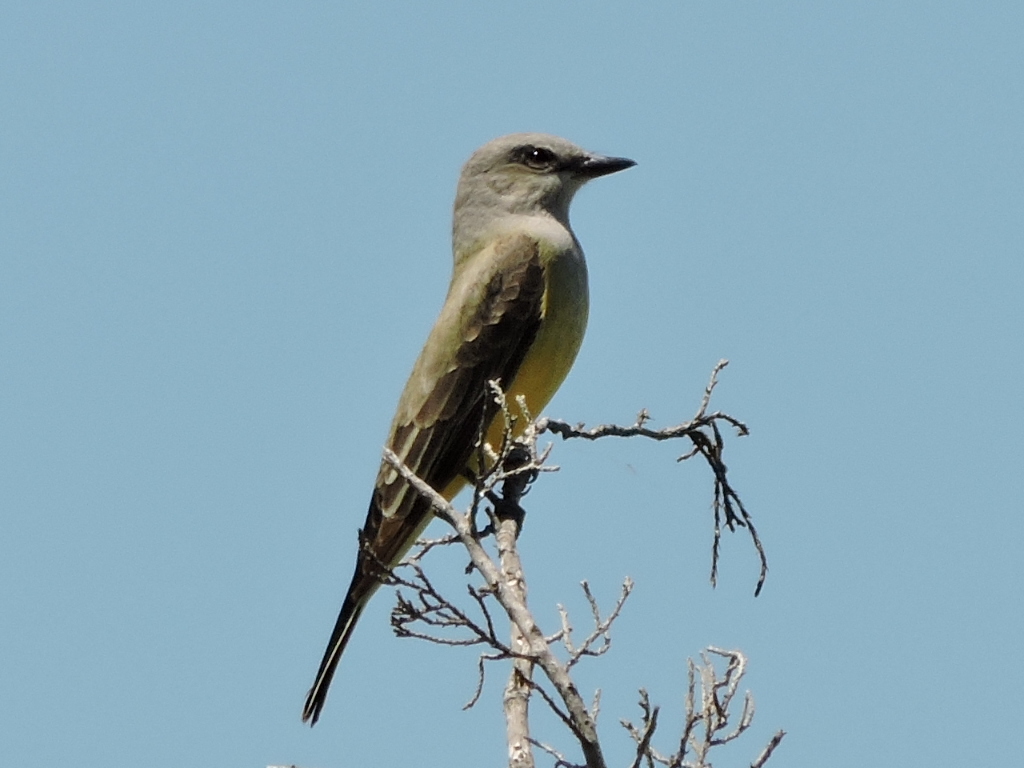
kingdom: Animalia
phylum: Chordata
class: Aves
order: Passeriformes
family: Tyrannidae
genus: Tyrannus
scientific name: Tyrannus verticalis
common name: Western kingbird
